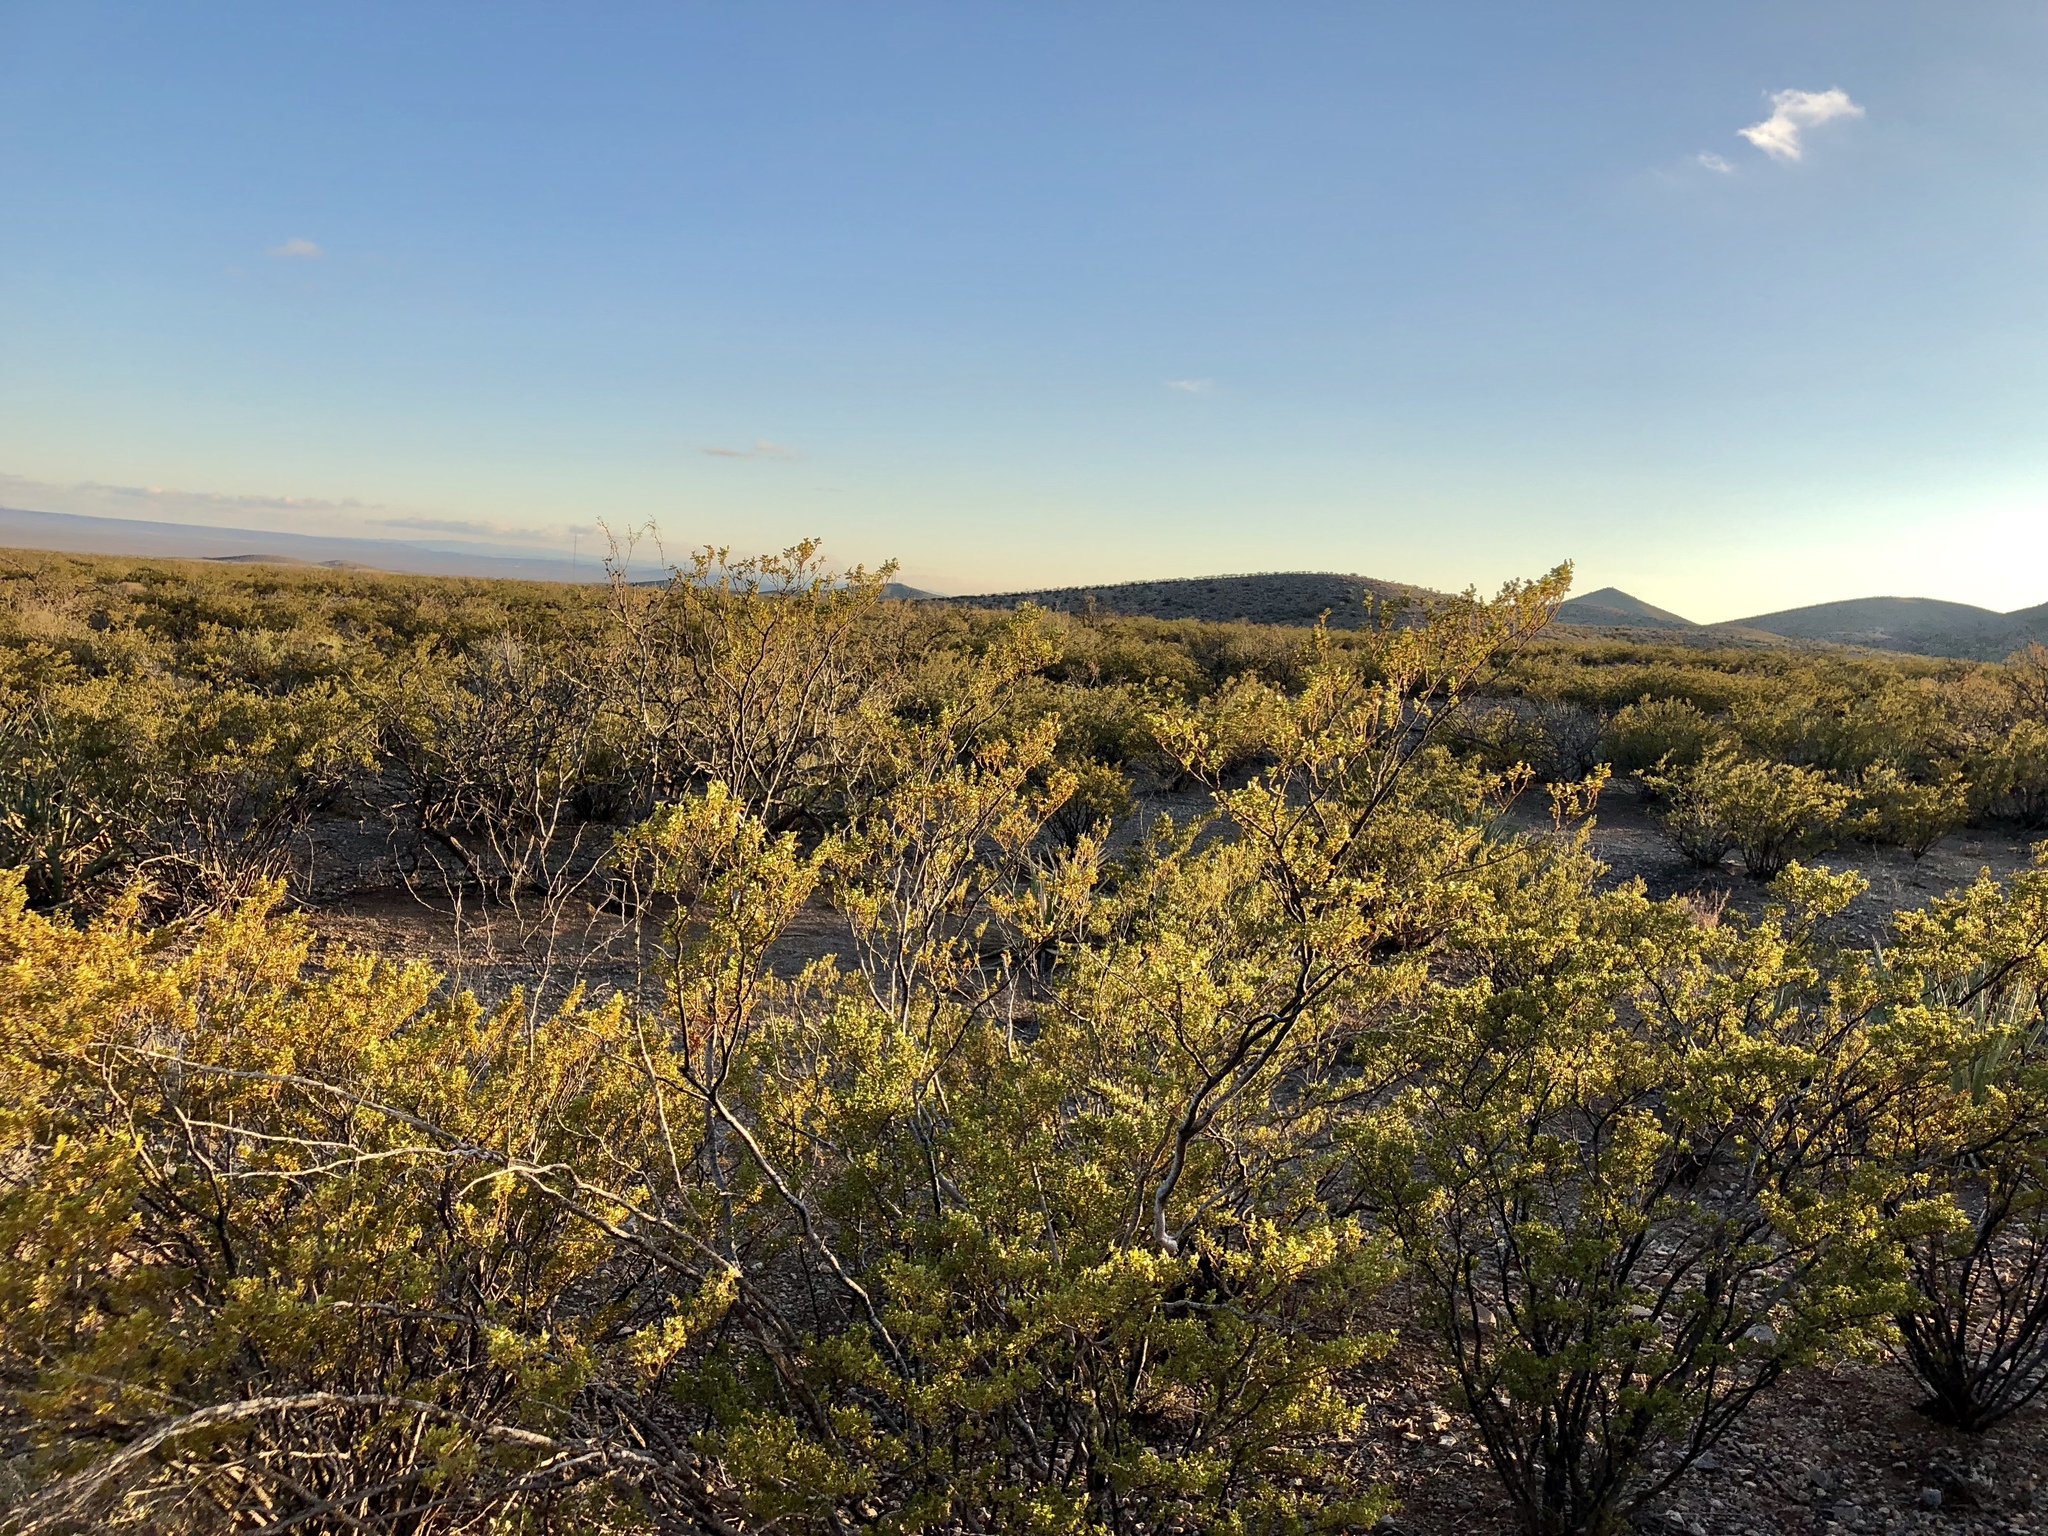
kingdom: Plantae
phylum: Tracheophyta
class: Magnoliopsida
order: Zygophyllales
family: Zygophyllaceae
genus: Larrea
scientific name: Larrea tridentata
